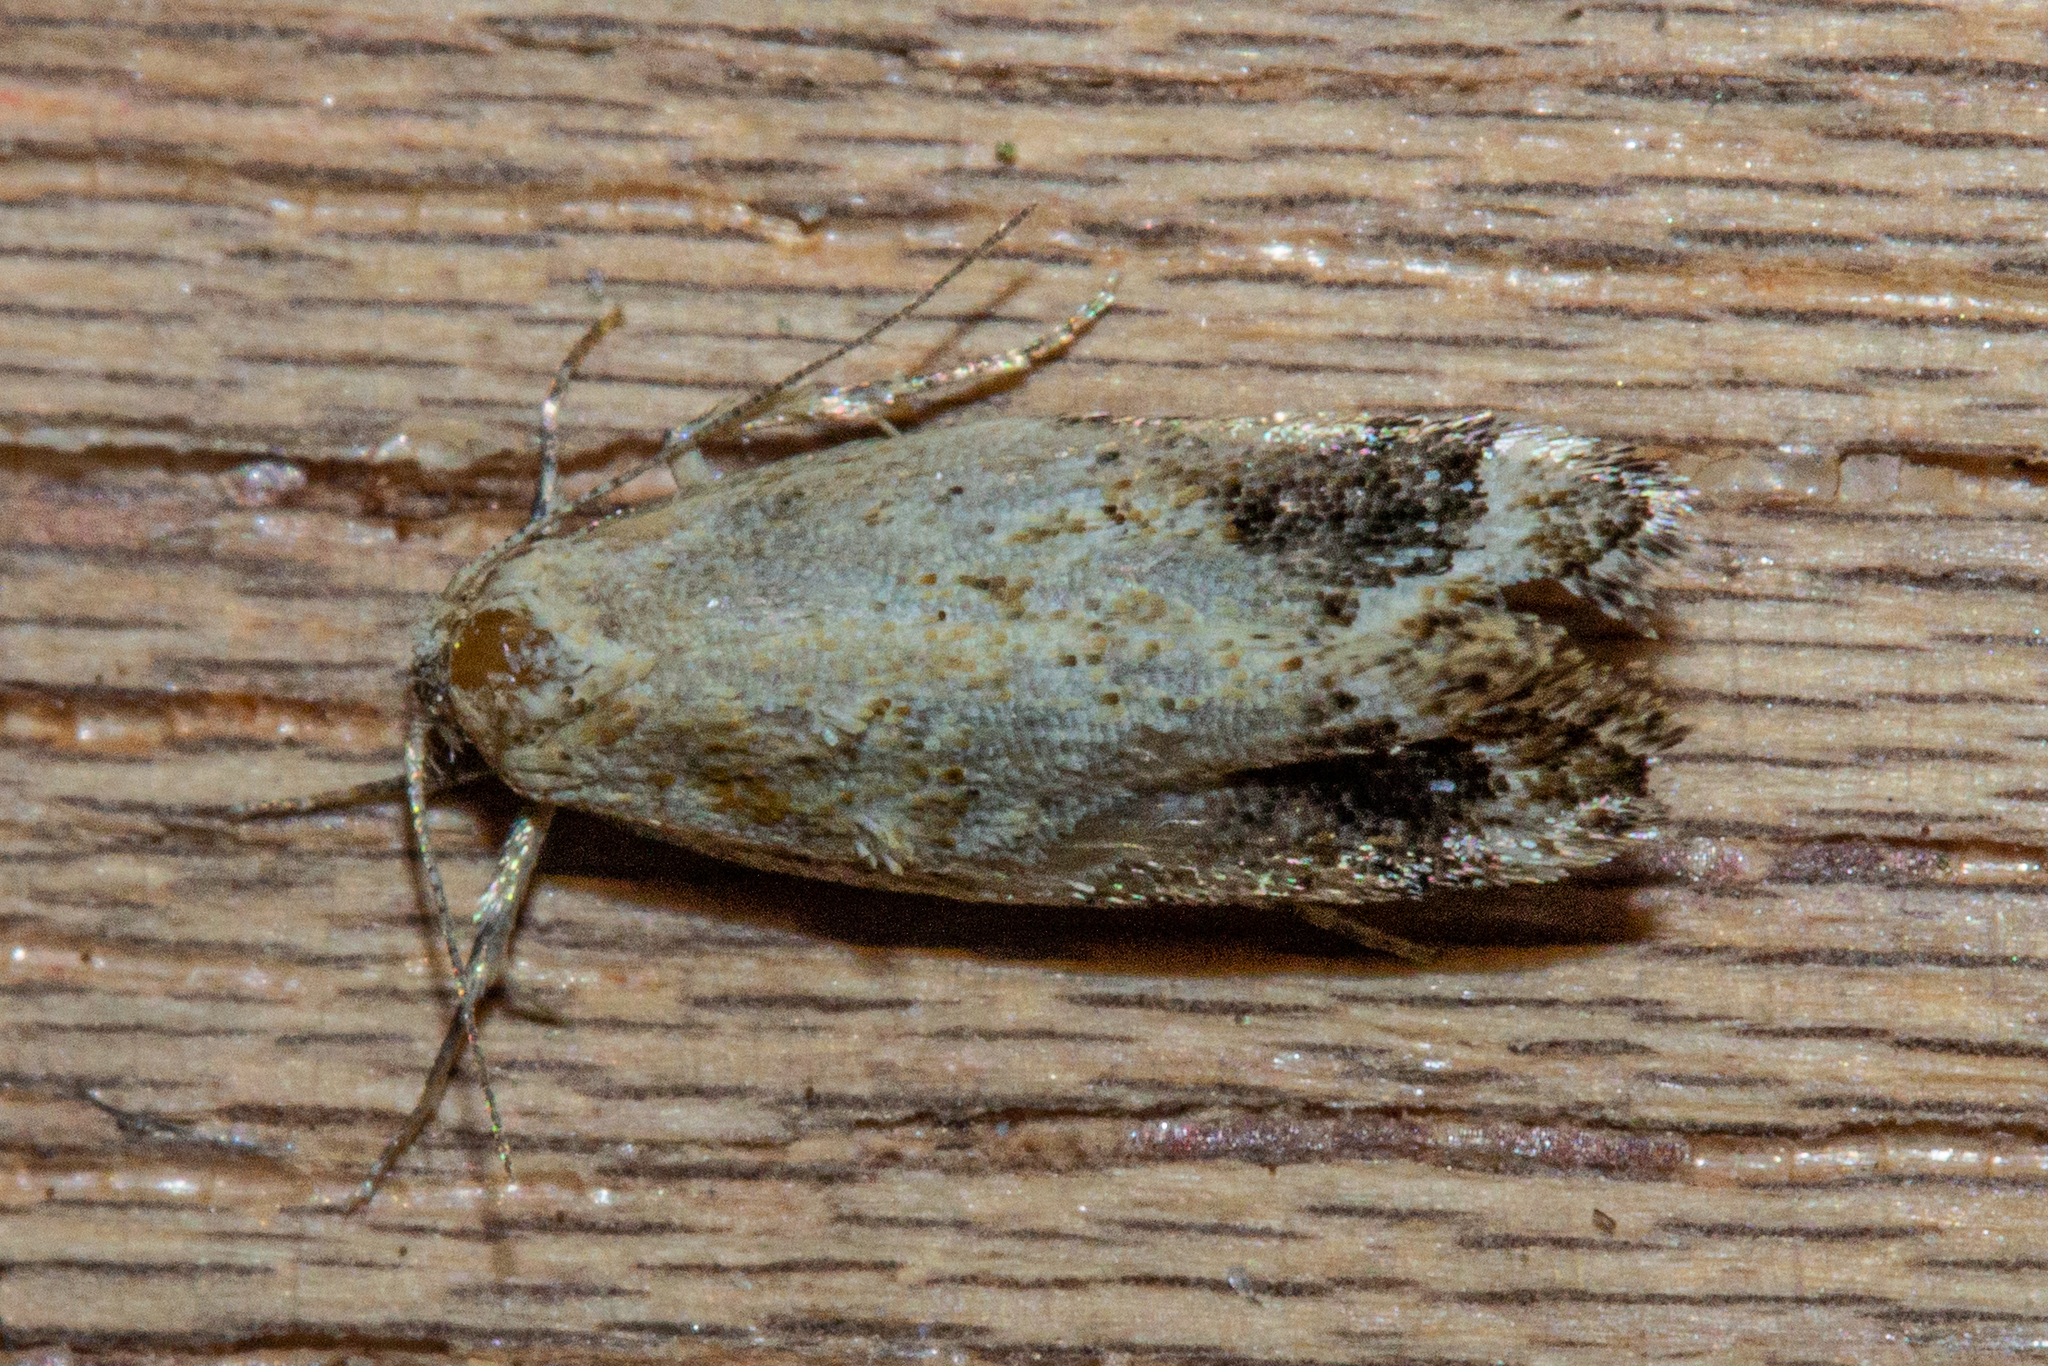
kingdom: Animalia
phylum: Arthropoda
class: Insecta
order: Lepidoptera
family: Oecophoridae
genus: Trachypepla
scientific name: Trachypepla aspidephora
